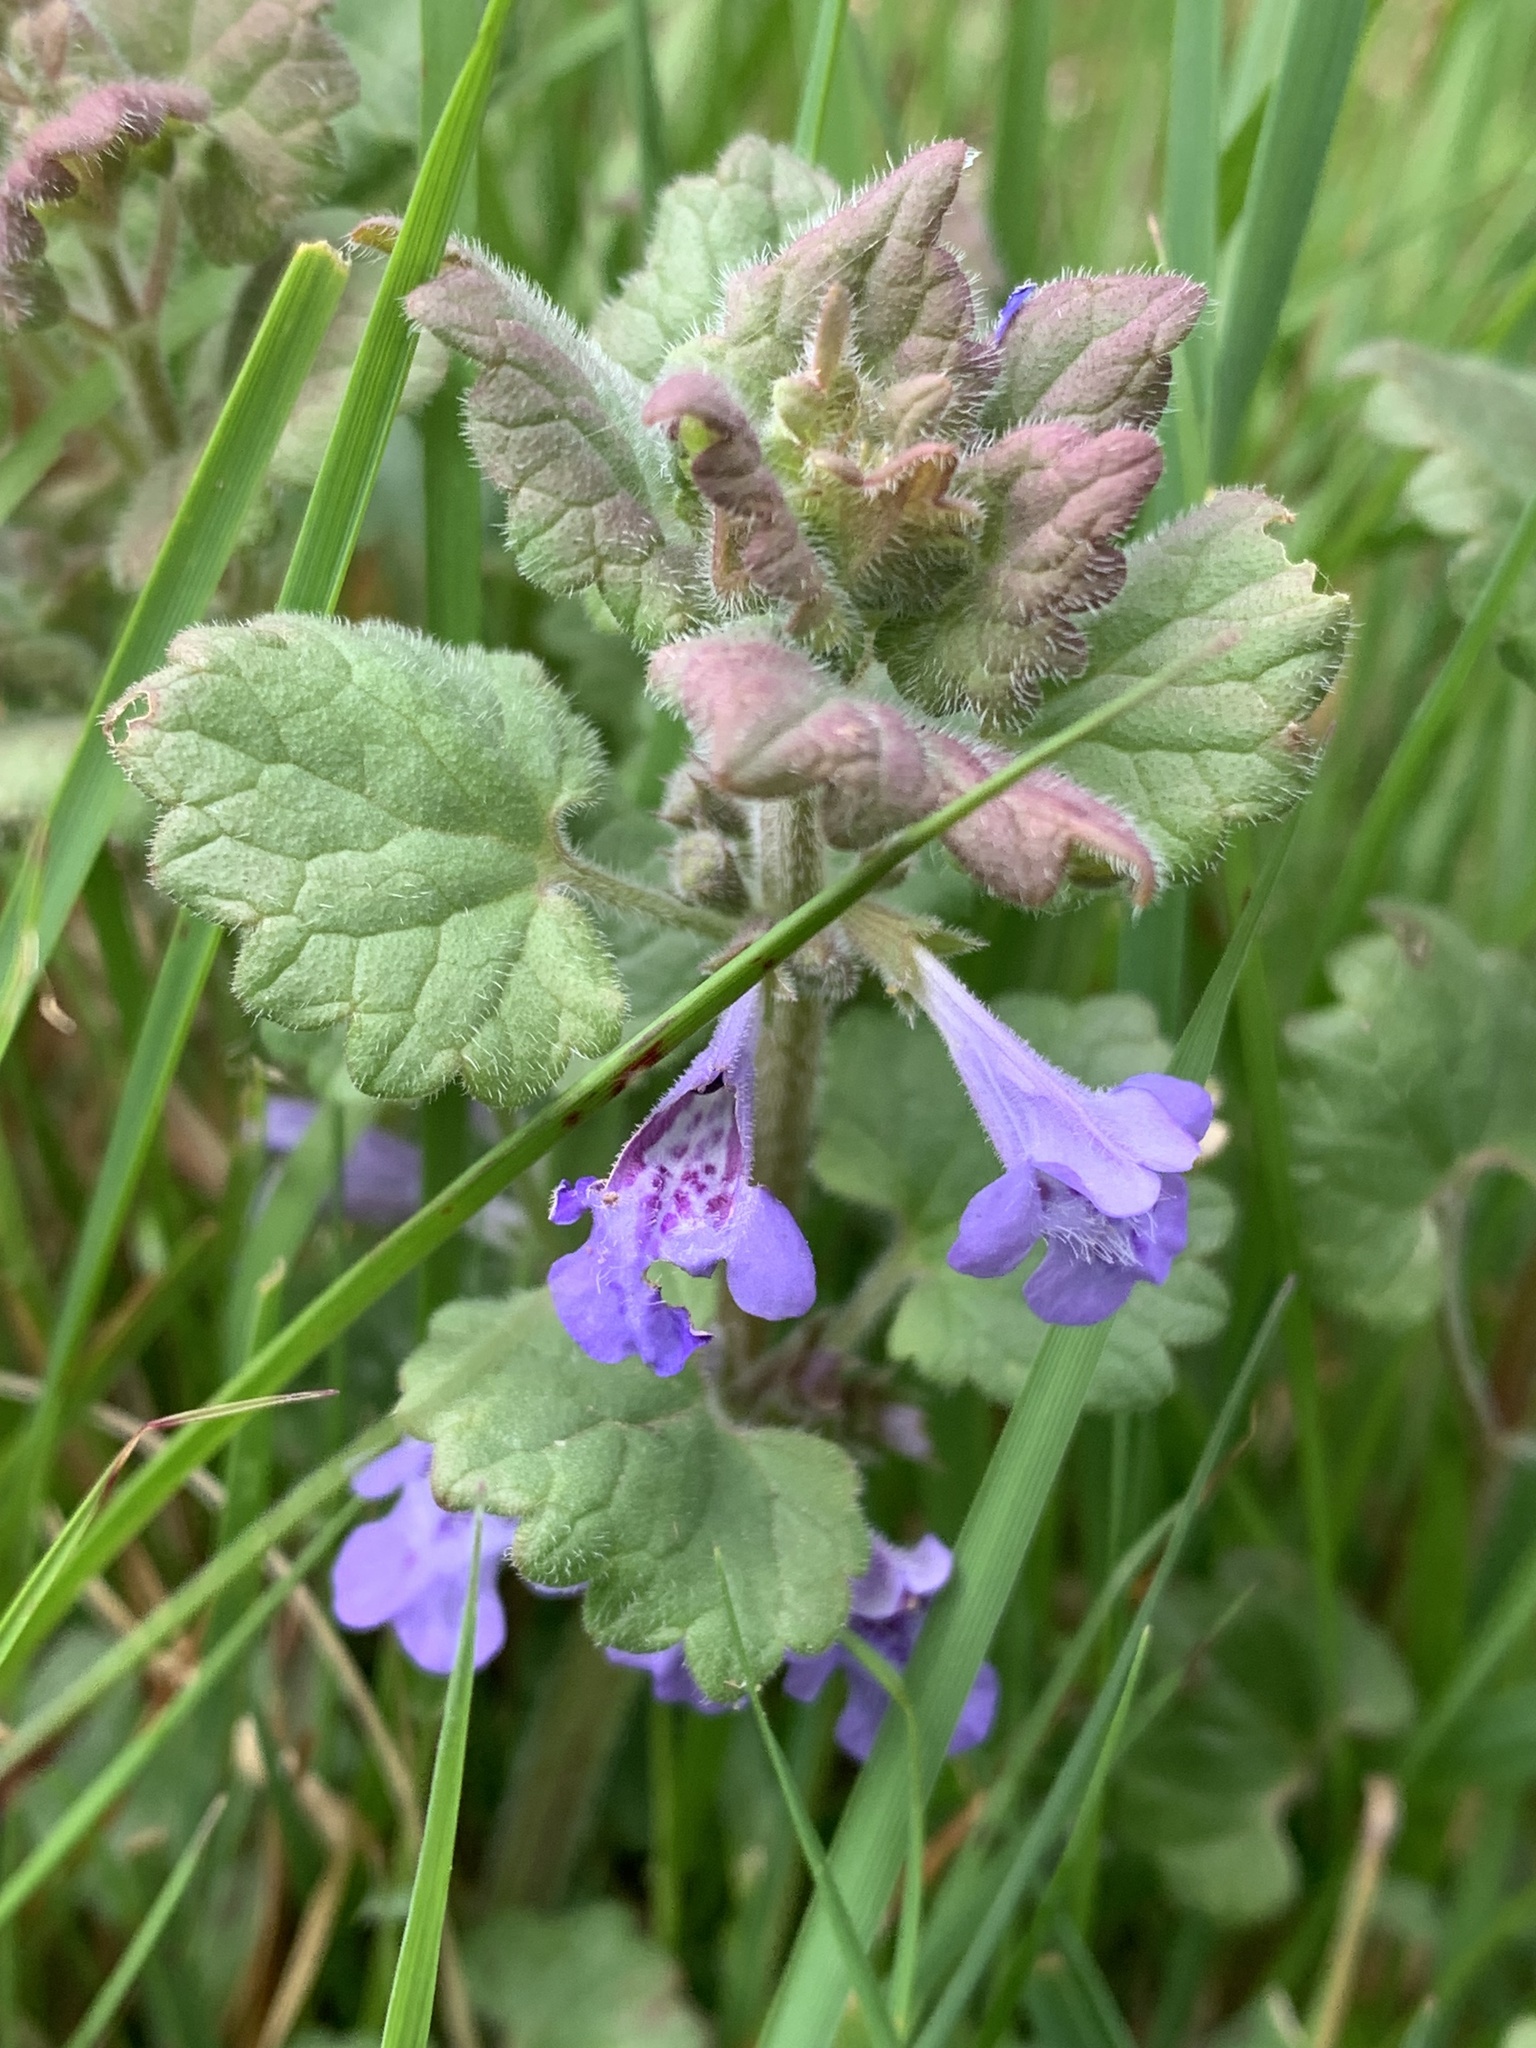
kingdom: Plantae
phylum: Tracheophyta
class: Magnoliopsida
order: Lamiales
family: Lamiaceae
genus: Glechoma
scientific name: Glechoma hederacea
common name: Ground ivy
